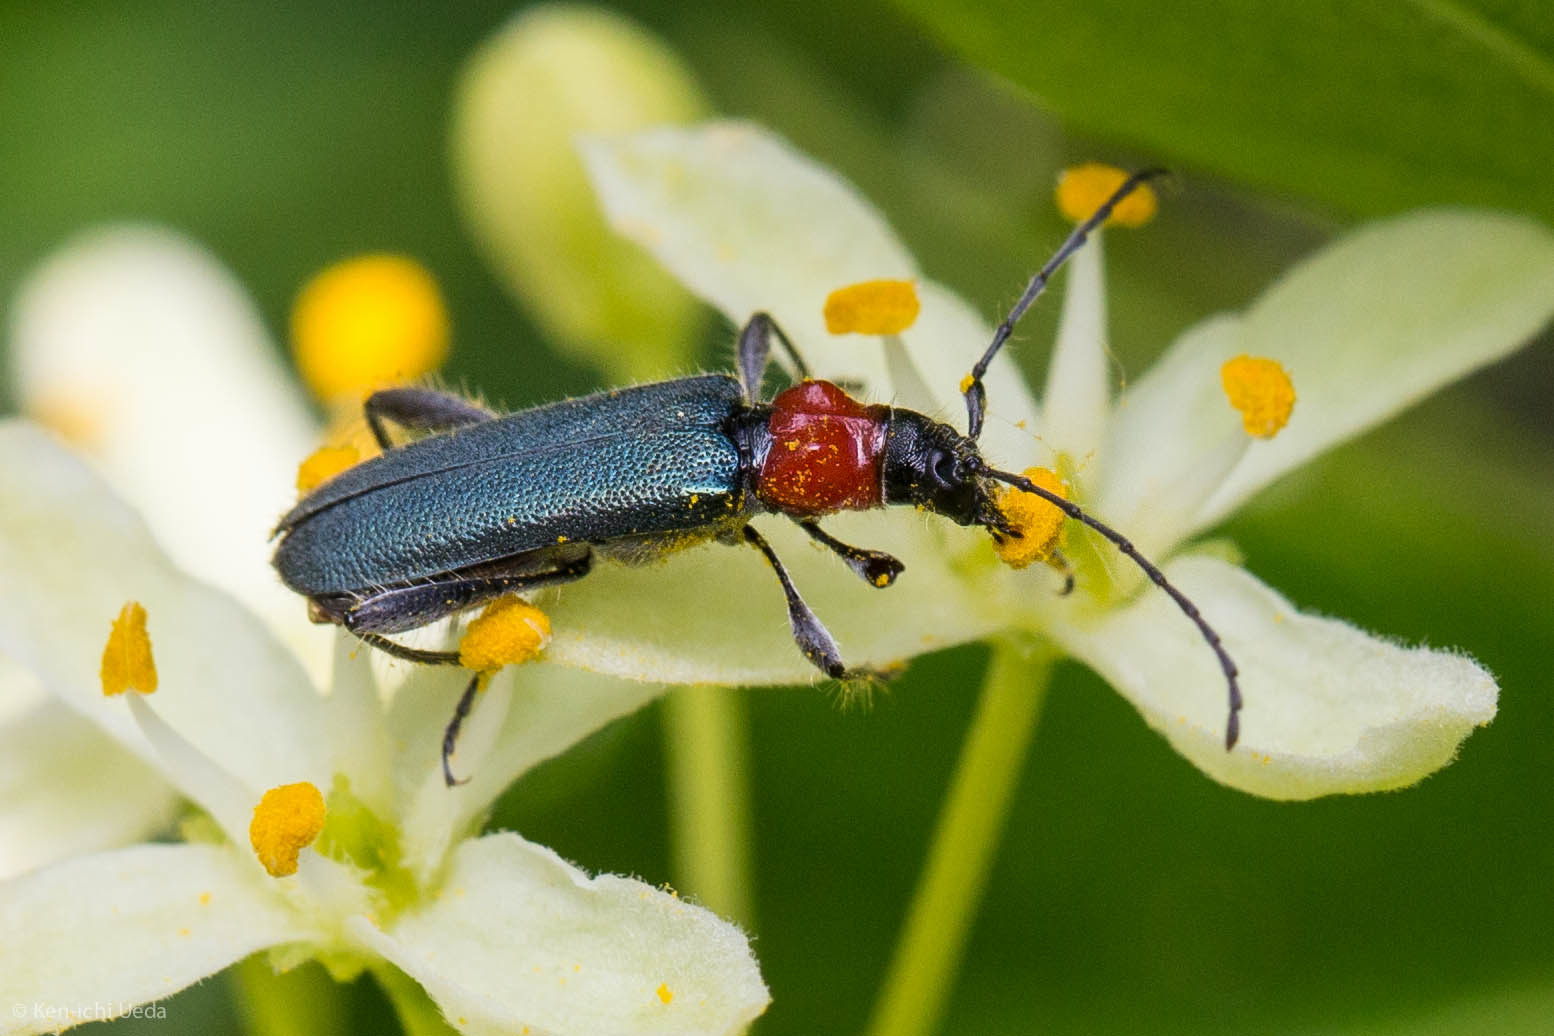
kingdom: Animalia
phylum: Arthropoda
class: Insecta
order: Coleoptera
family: Cerambycidae
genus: Callimus
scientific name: Callimus ruficollis
